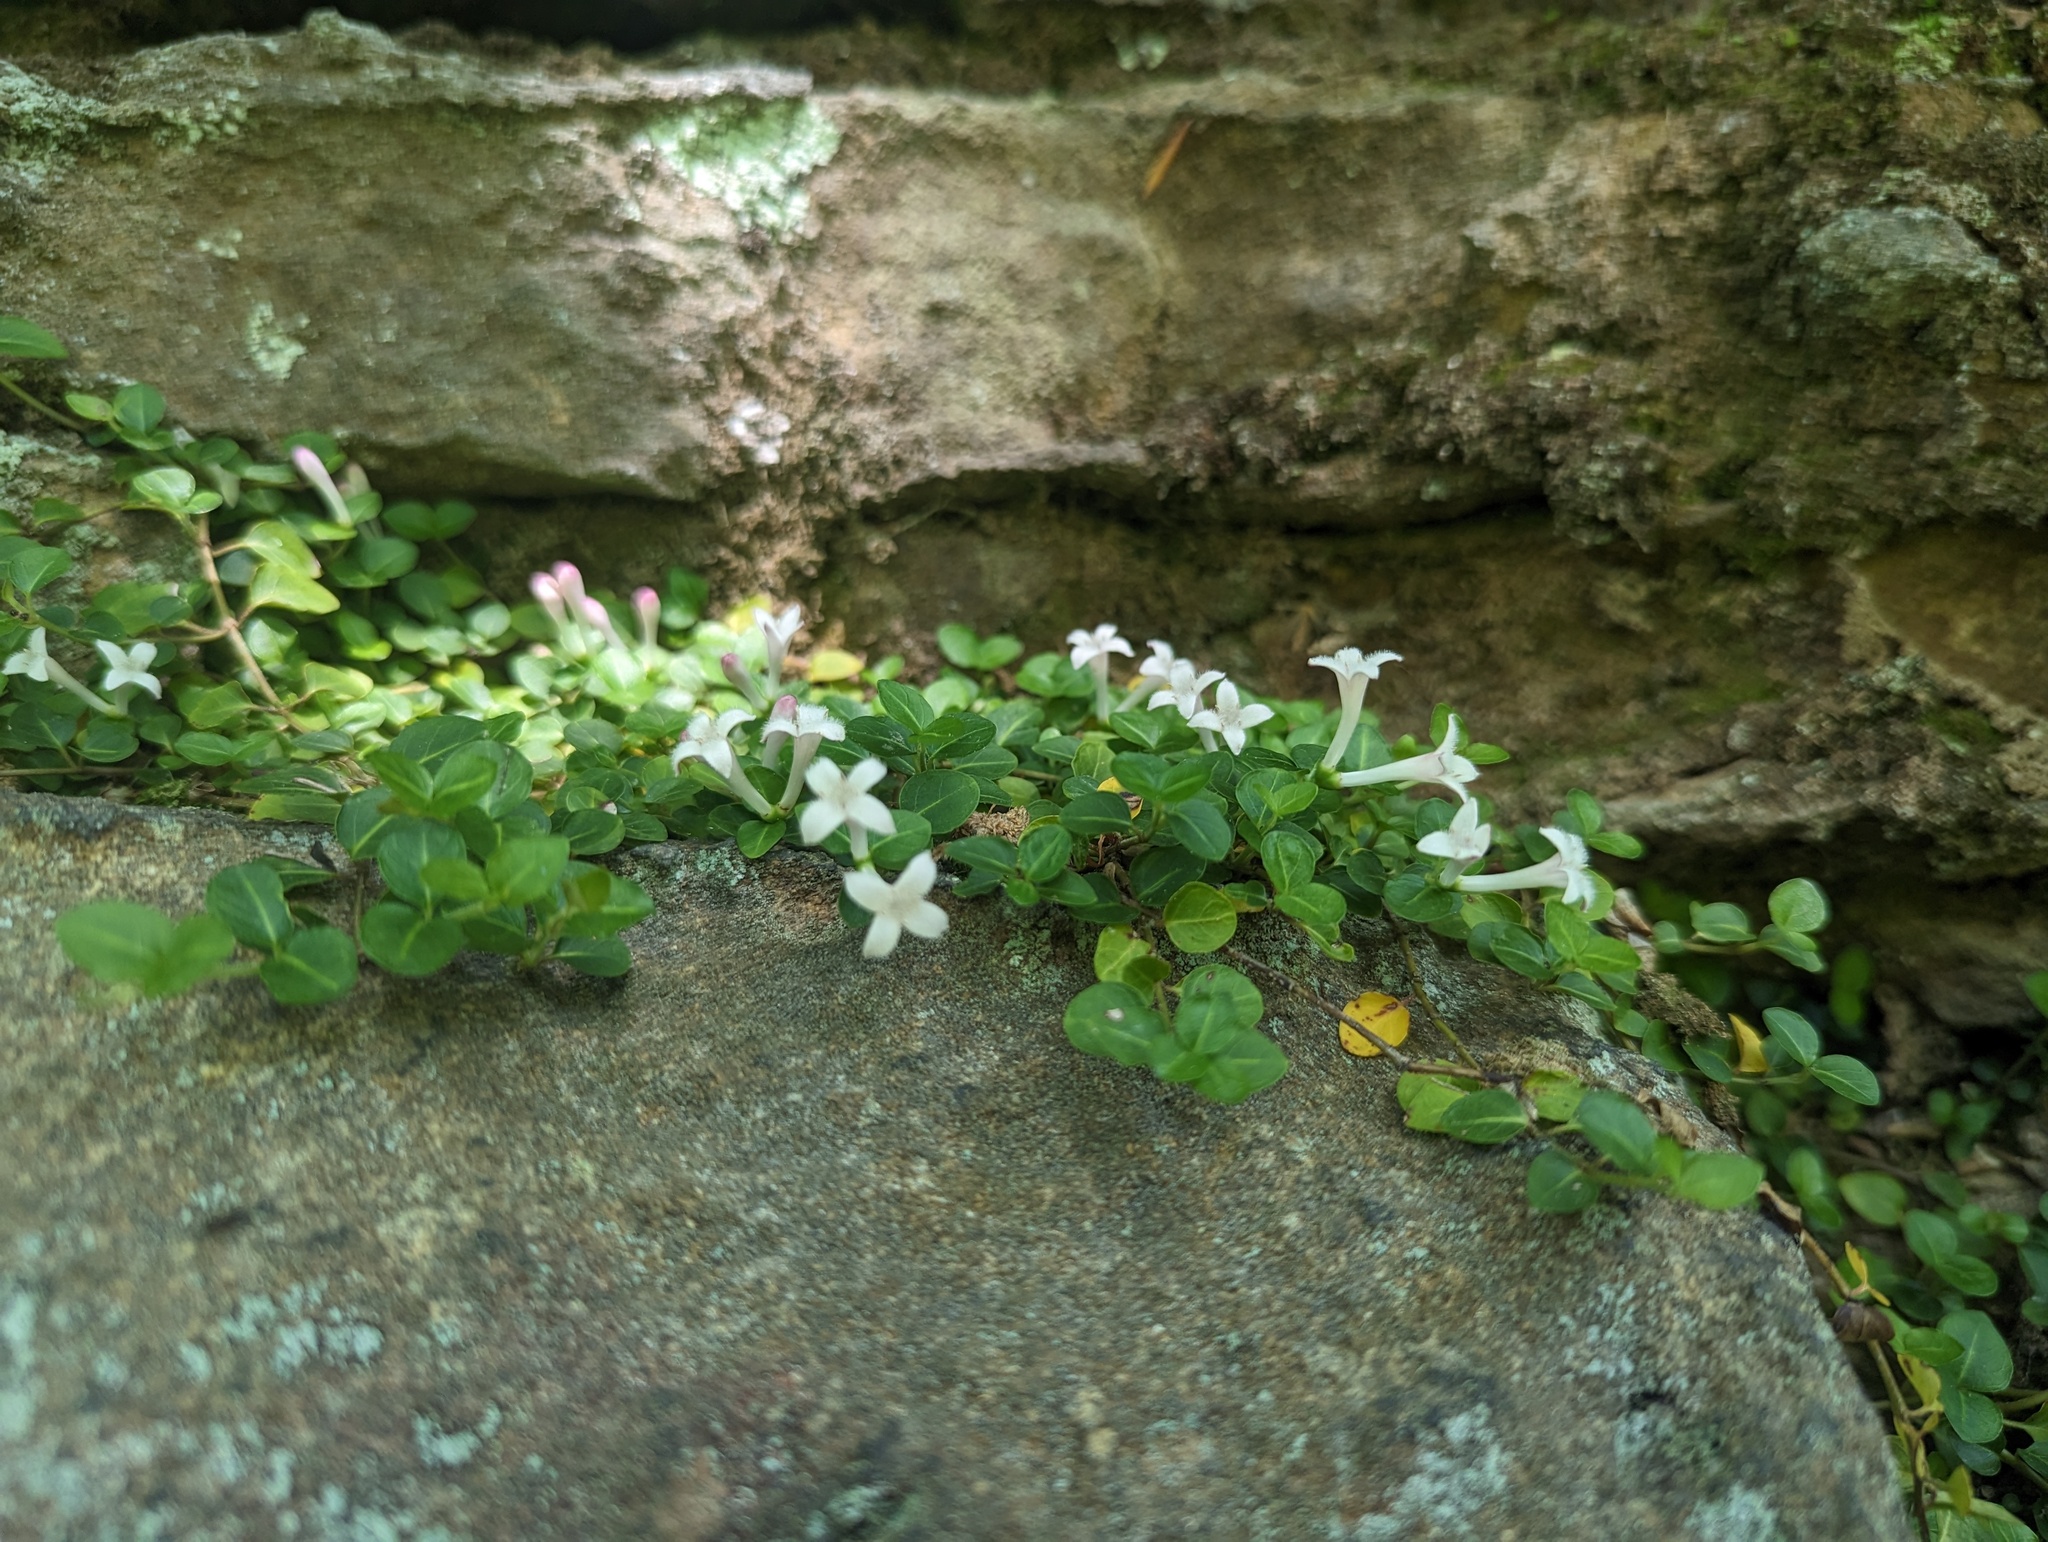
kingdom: Plantae
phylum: Tracheophyta
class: Magnoliopsida
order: Gentianales
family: Rubiaceae
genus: Mitchella
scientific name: Mitchella repens
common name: Partridge-berry
